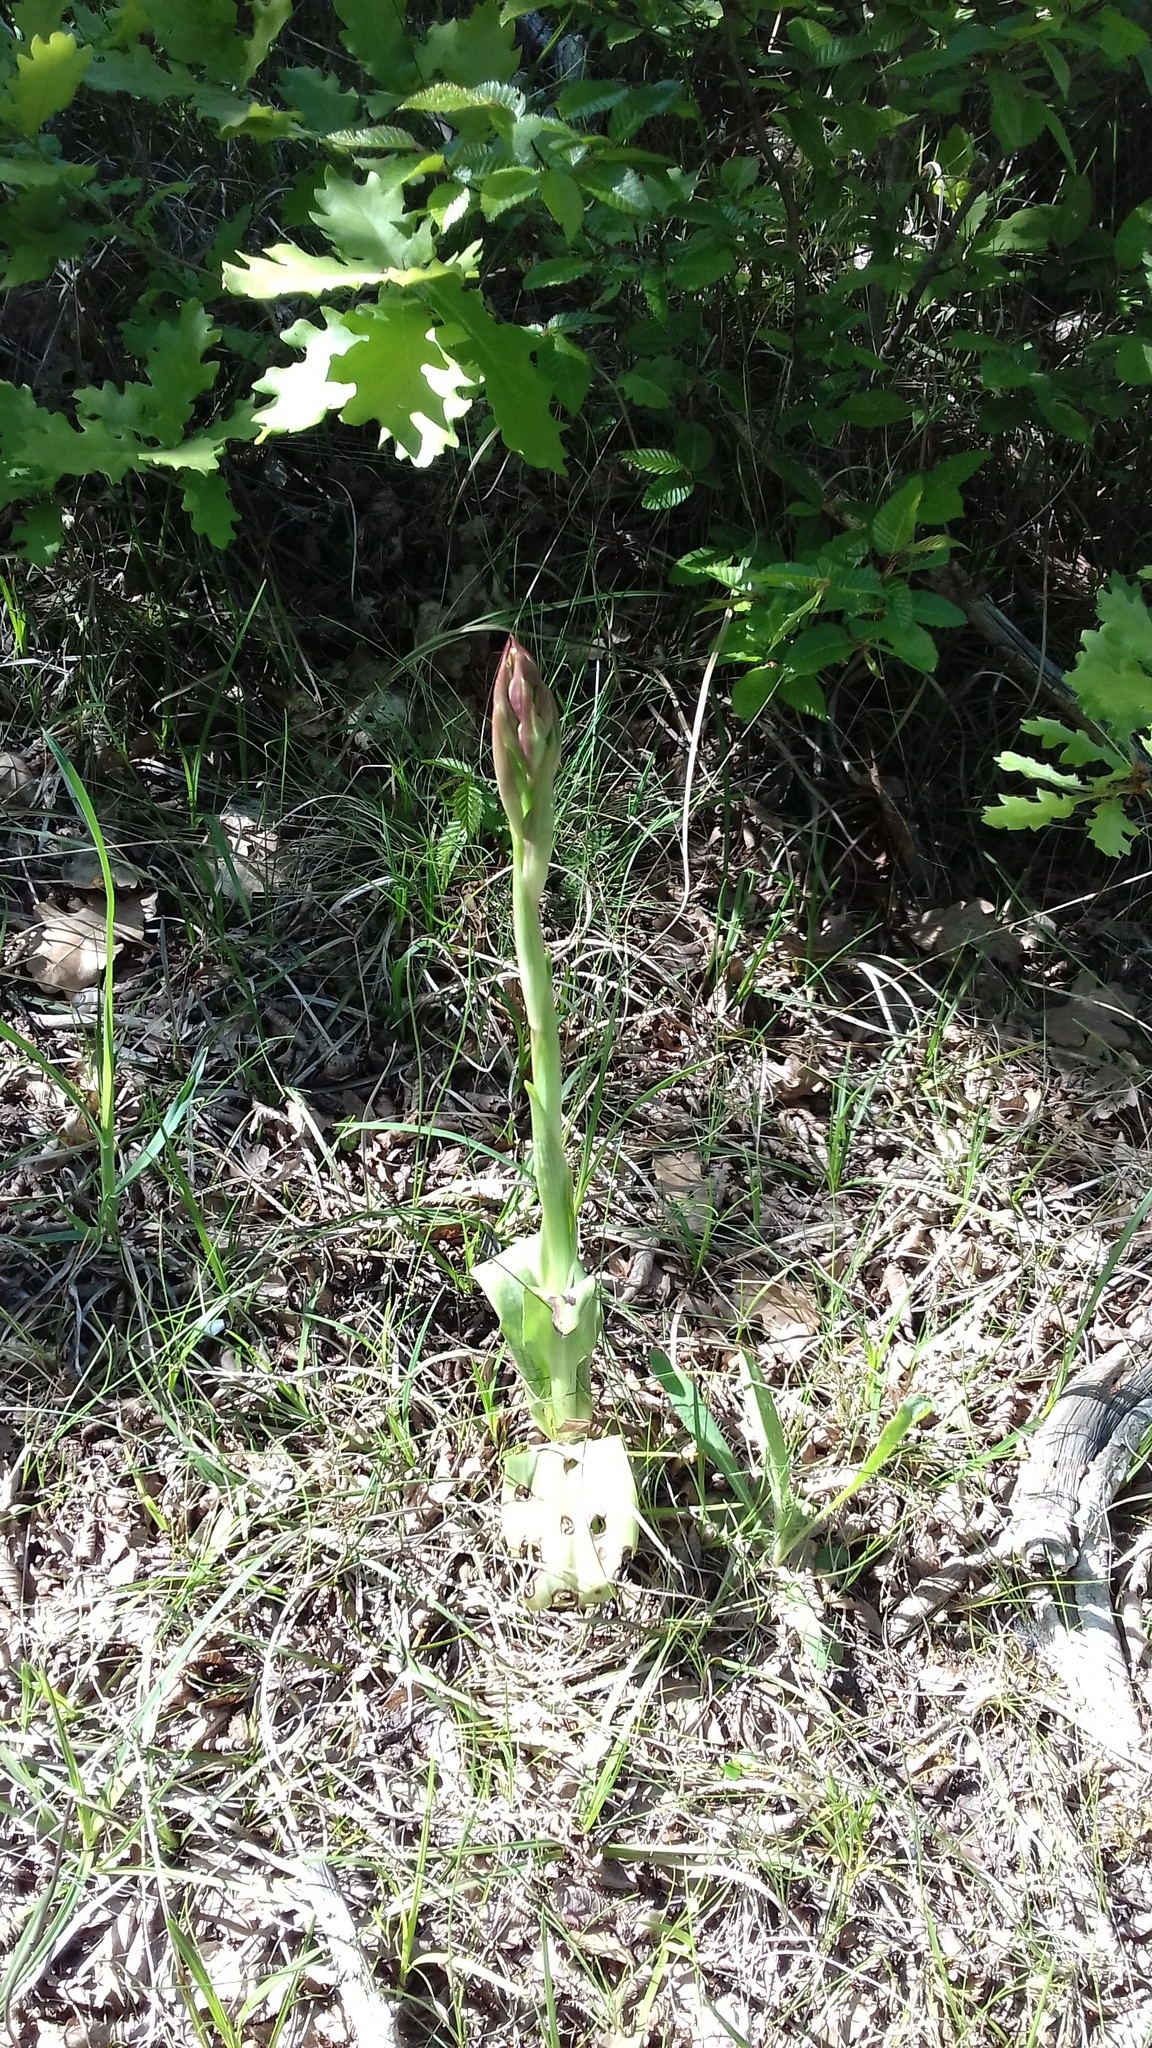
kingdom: Plantae
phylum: Tracheophyta
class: Liliopsida
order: Asparagales
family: Orchidaceae
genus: Himantoglossum
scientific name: Himantoglossum comperianum
